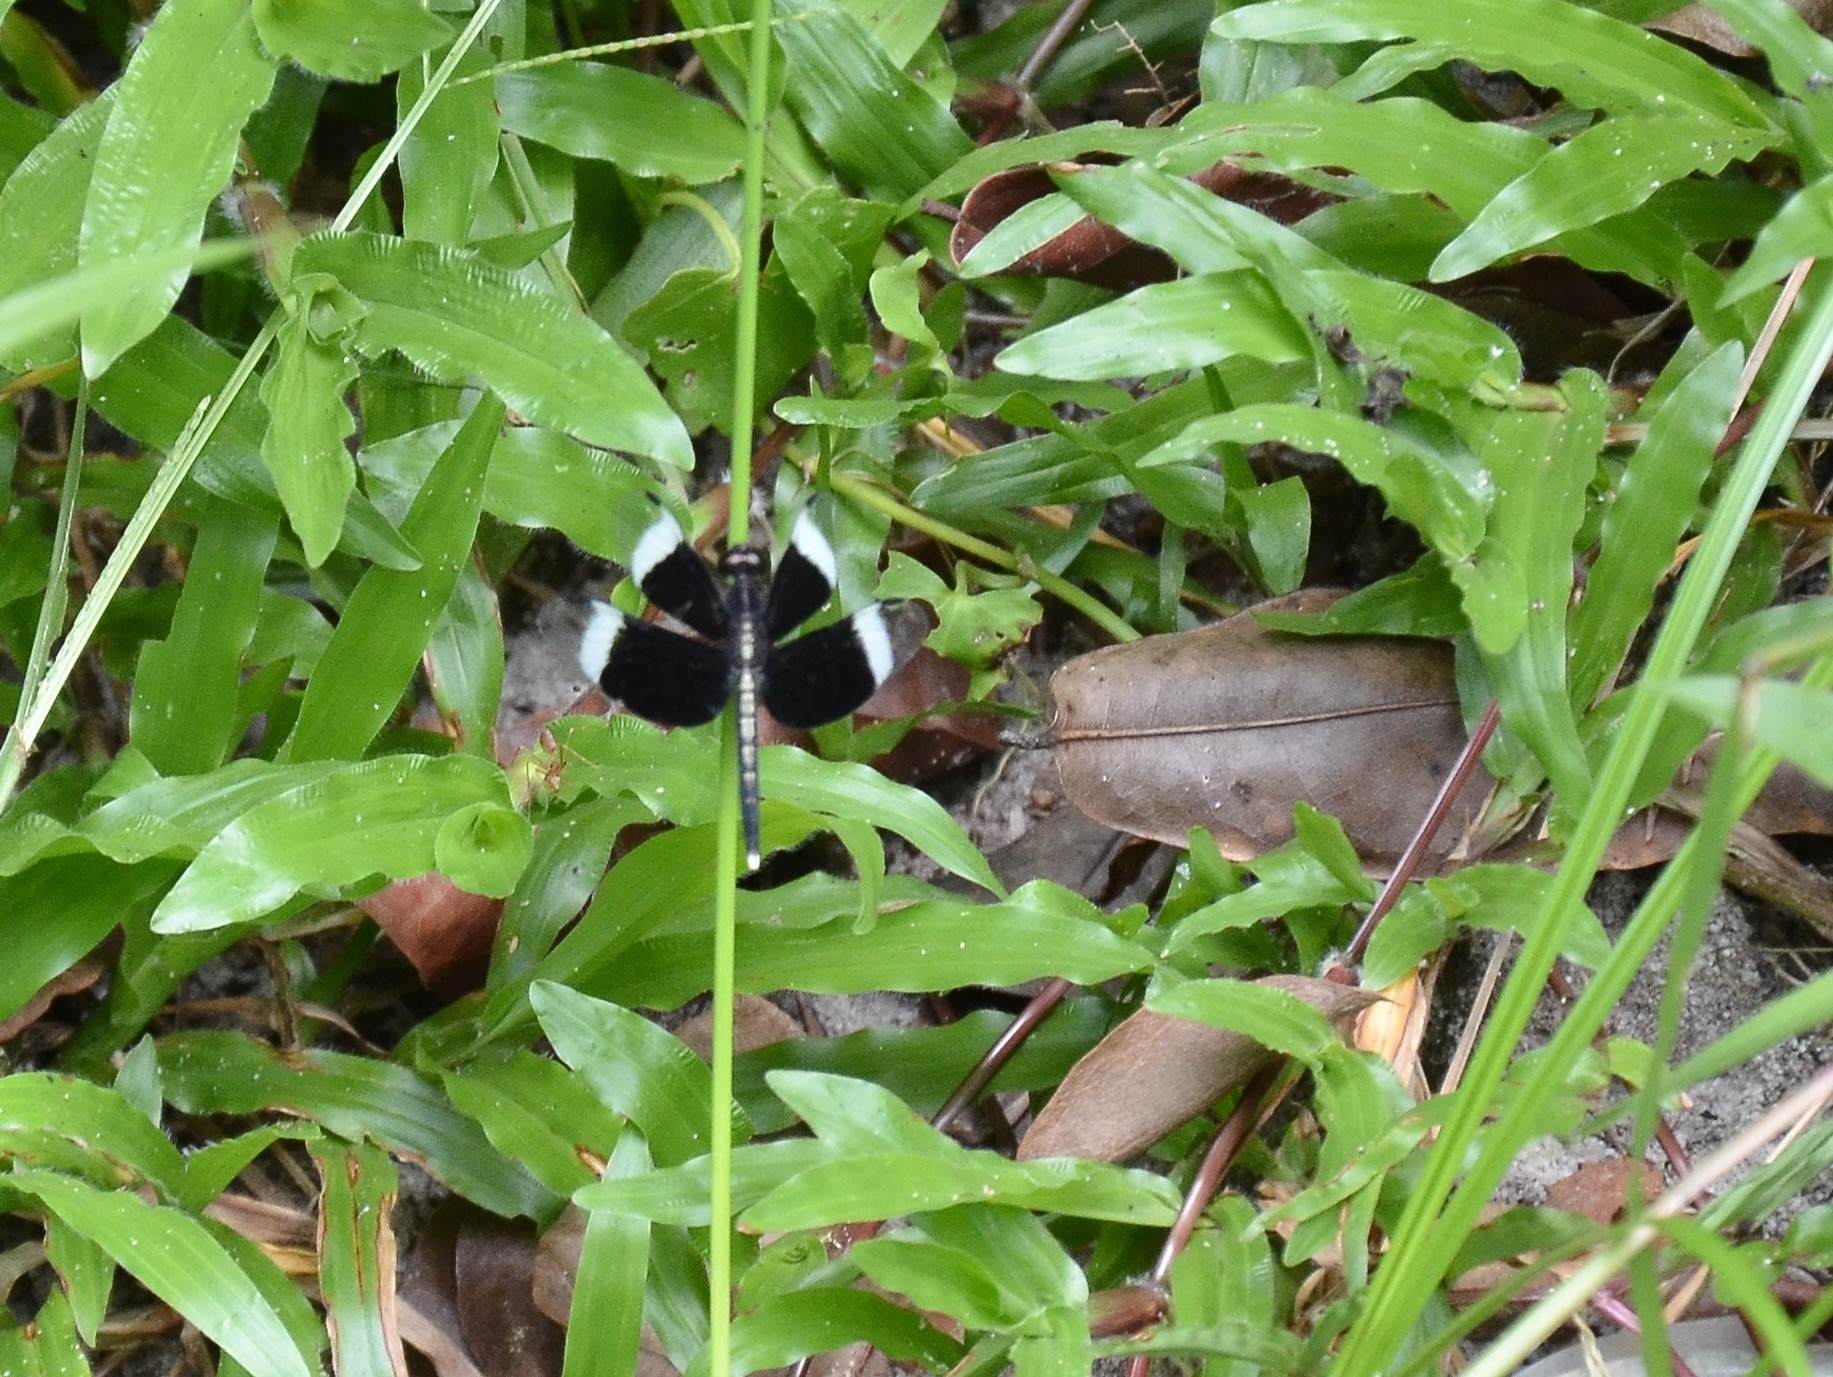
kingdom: Animalia
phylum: Arthropoda
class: Insecta
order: Odonata
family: Libellulidae
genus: Neurothemis
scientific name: Neurothemis tullia
